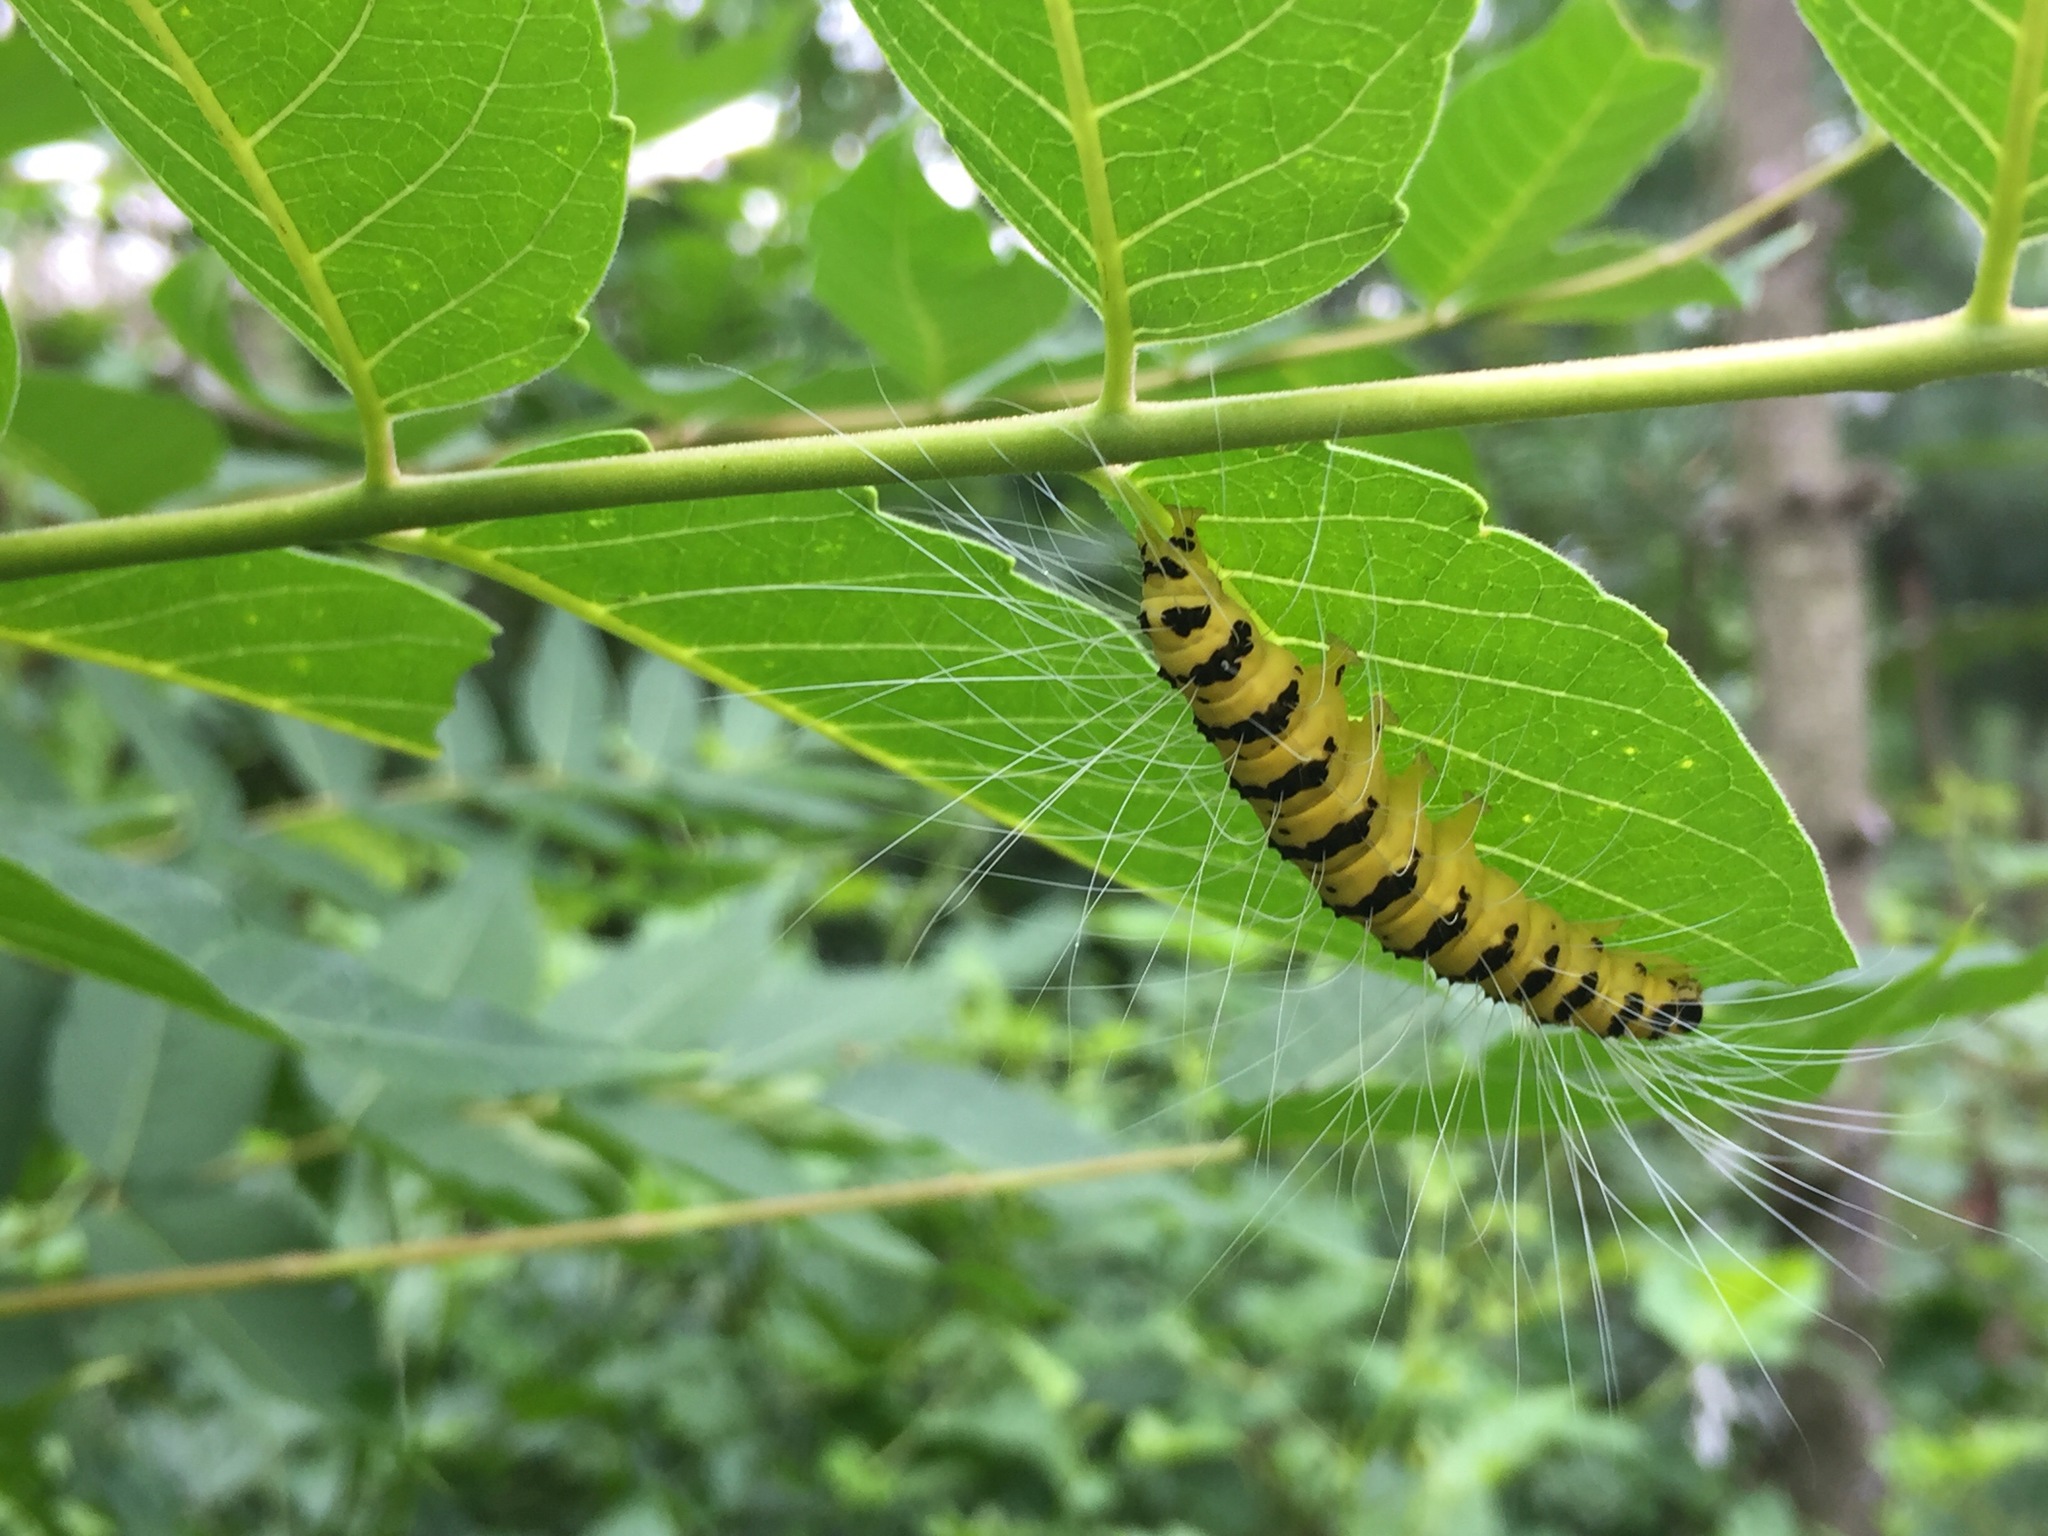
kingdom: Animalia
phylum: Arthropoda
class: Insecta
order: Lepidoptera
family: Nolidae
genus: Eligma
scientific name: Eligma narcissus
